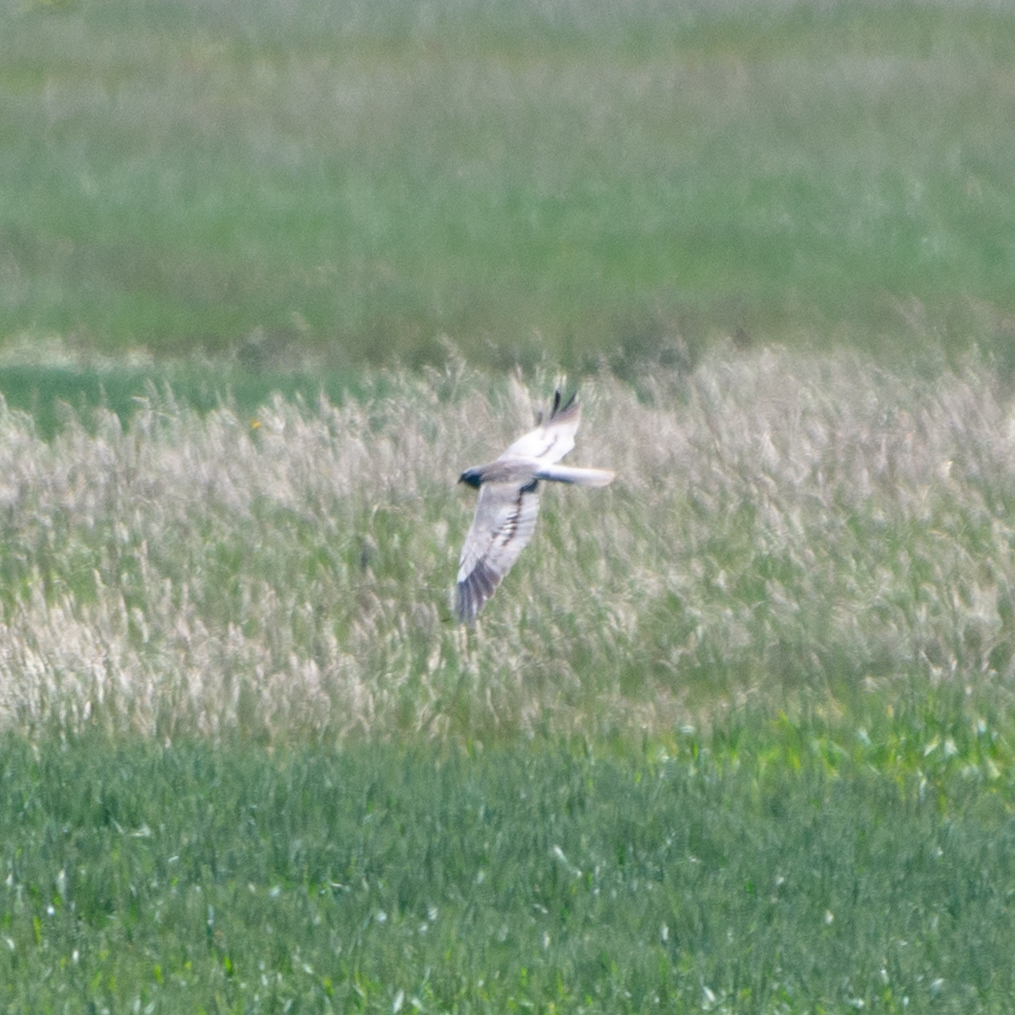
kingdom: Animalia
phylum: Chordata
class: Aves
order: Accipitriformes
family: Accipitridae
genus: Circus
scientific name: Circus pygargus
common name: Montagu's harrier
